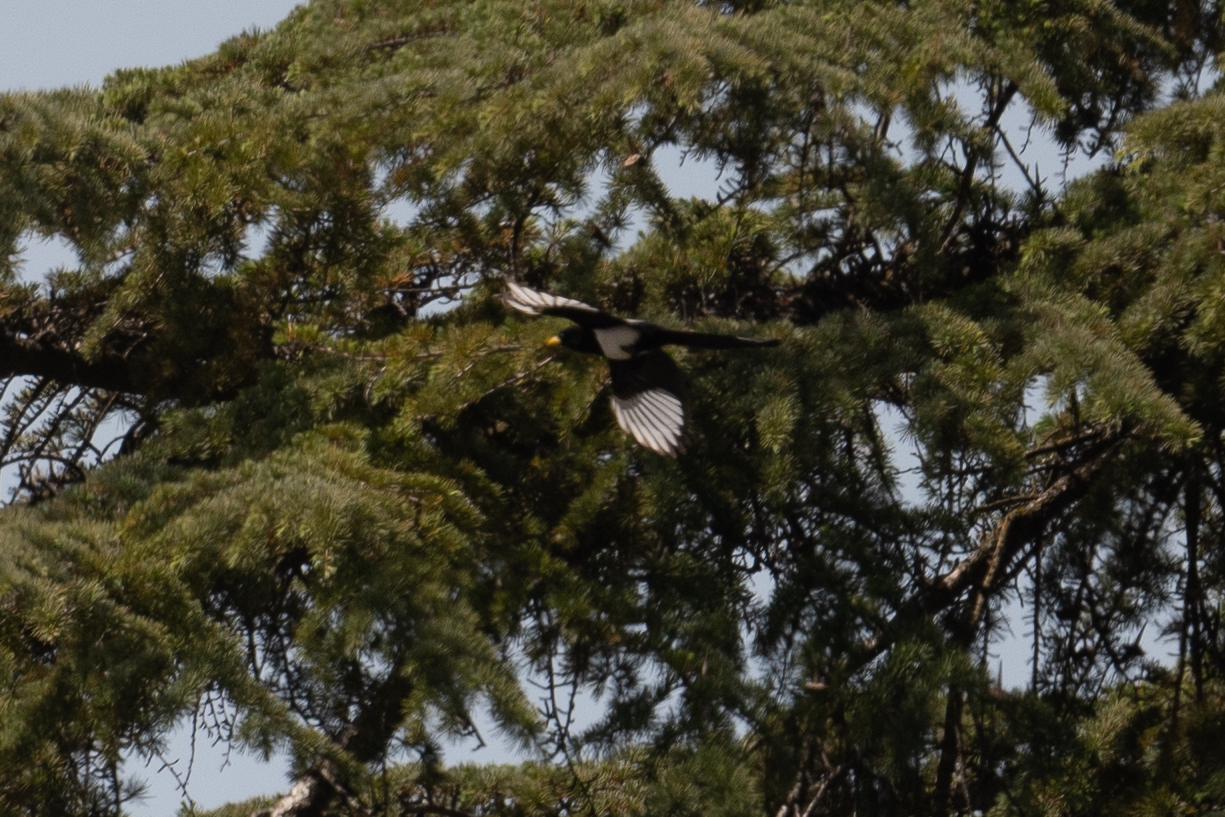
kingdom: Animalia
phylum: Chordata
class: Aves
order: Passeriformes
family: Corvidae
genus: Pica
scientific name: Pica nuttalli
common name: Yellow-billed magpie
